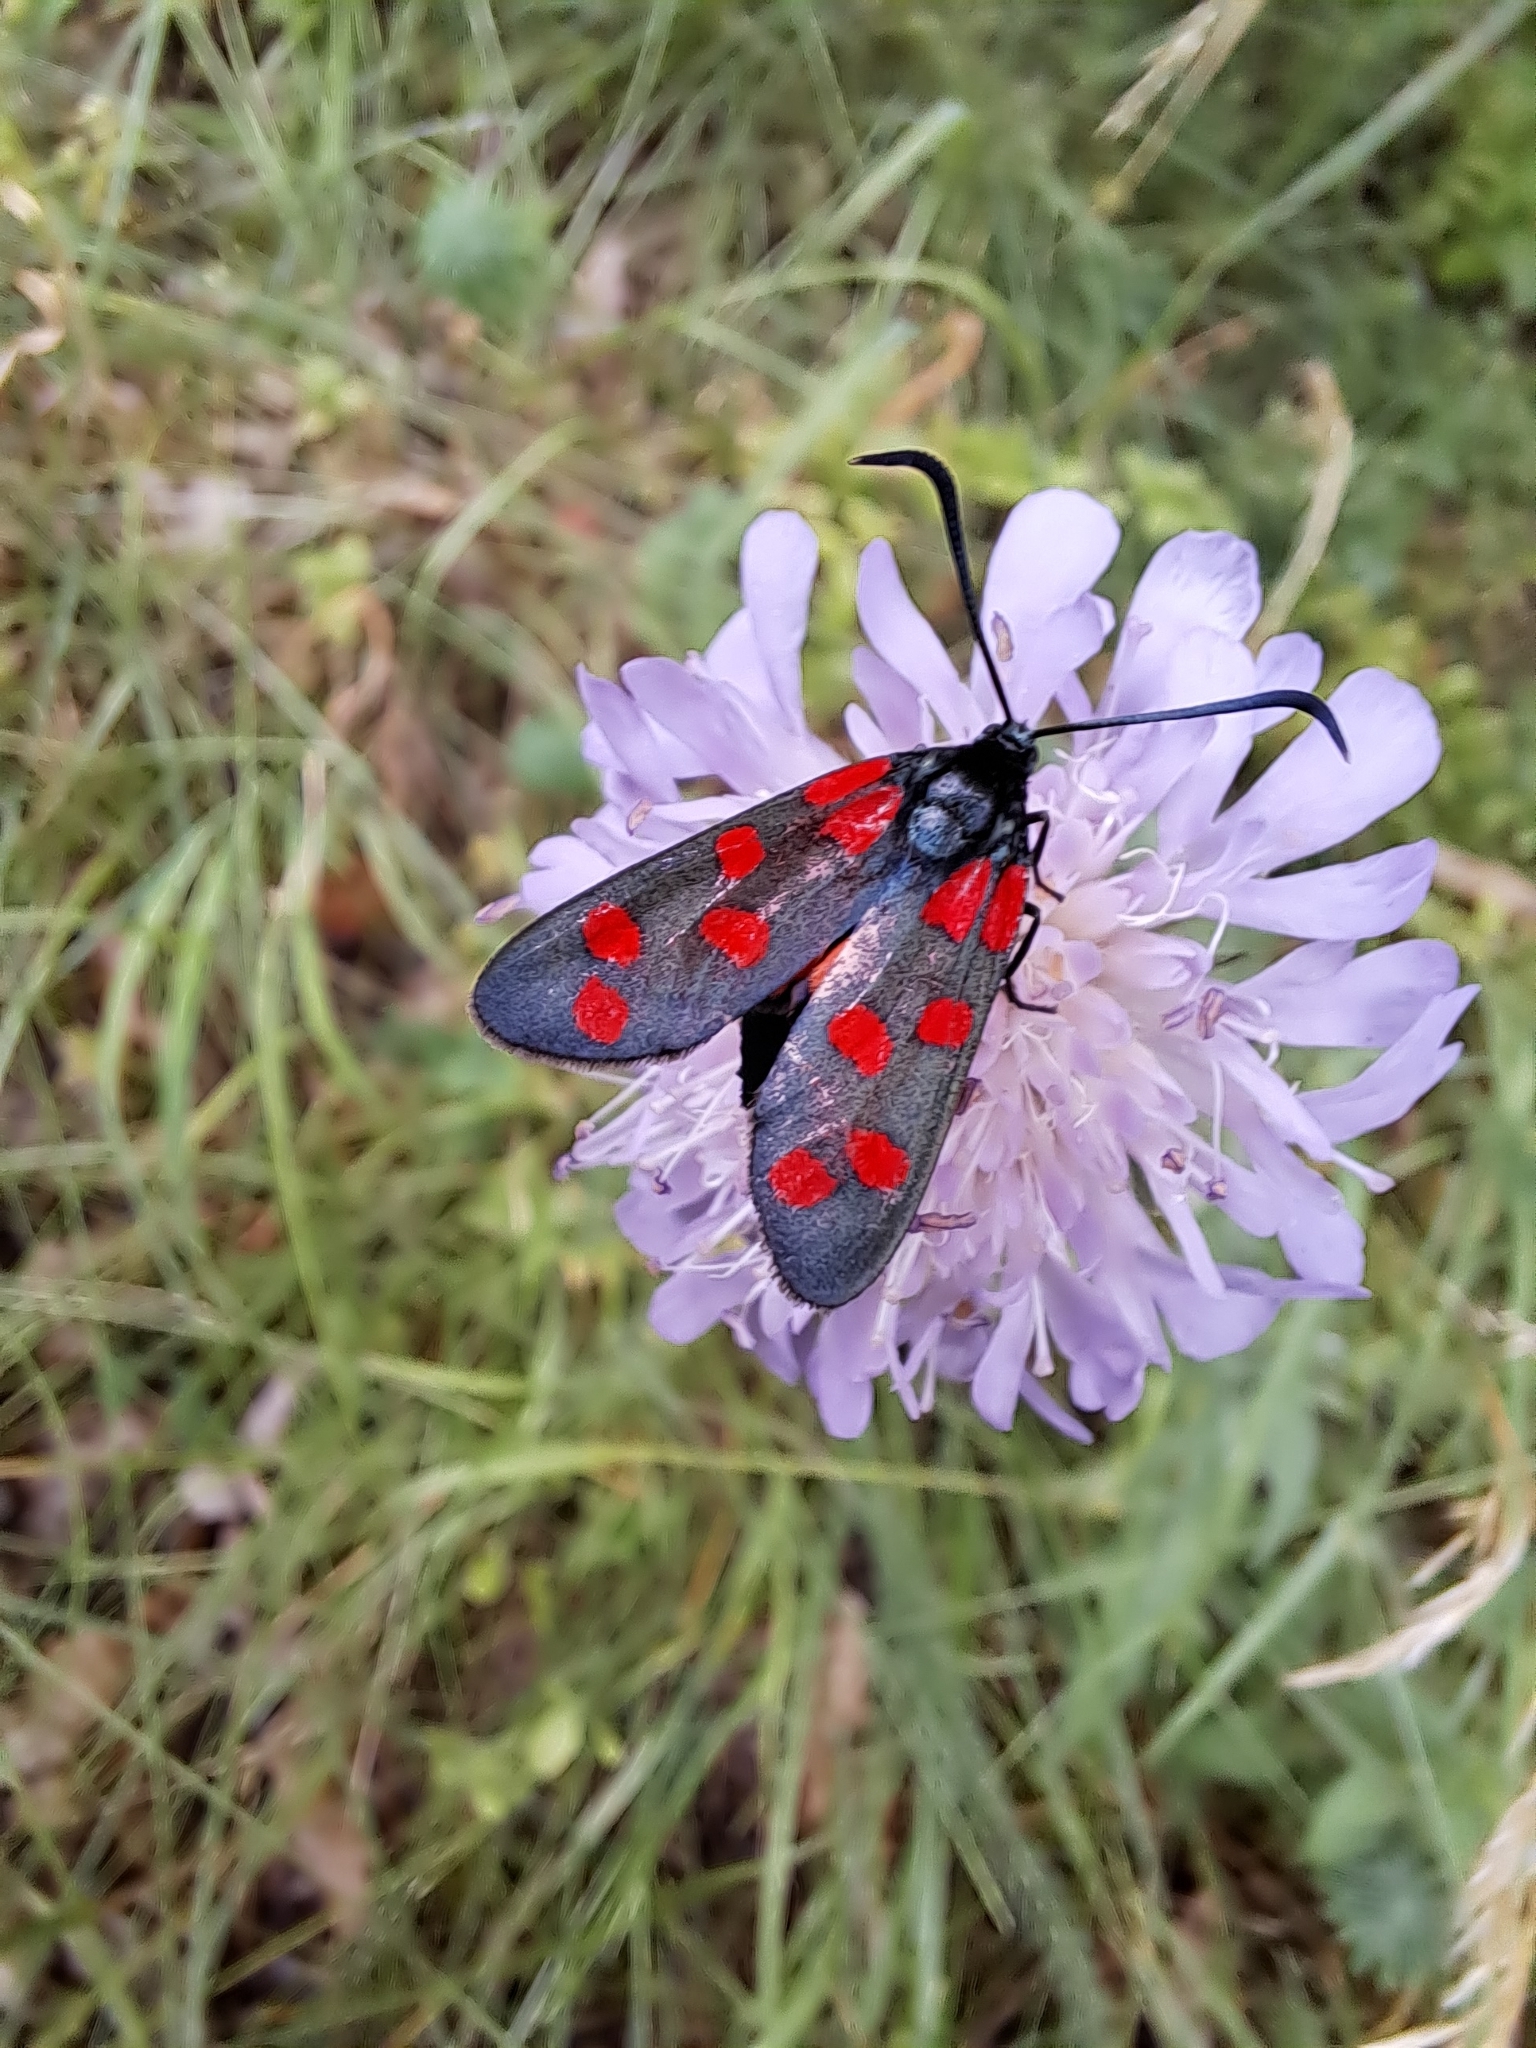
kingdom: Animalia
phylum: Arthropoda
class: Insecta
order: Lepidoptera
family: Zygaenidae
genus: Zygaena
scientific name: Zygaena transalpina
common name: Southern six spot burnet
